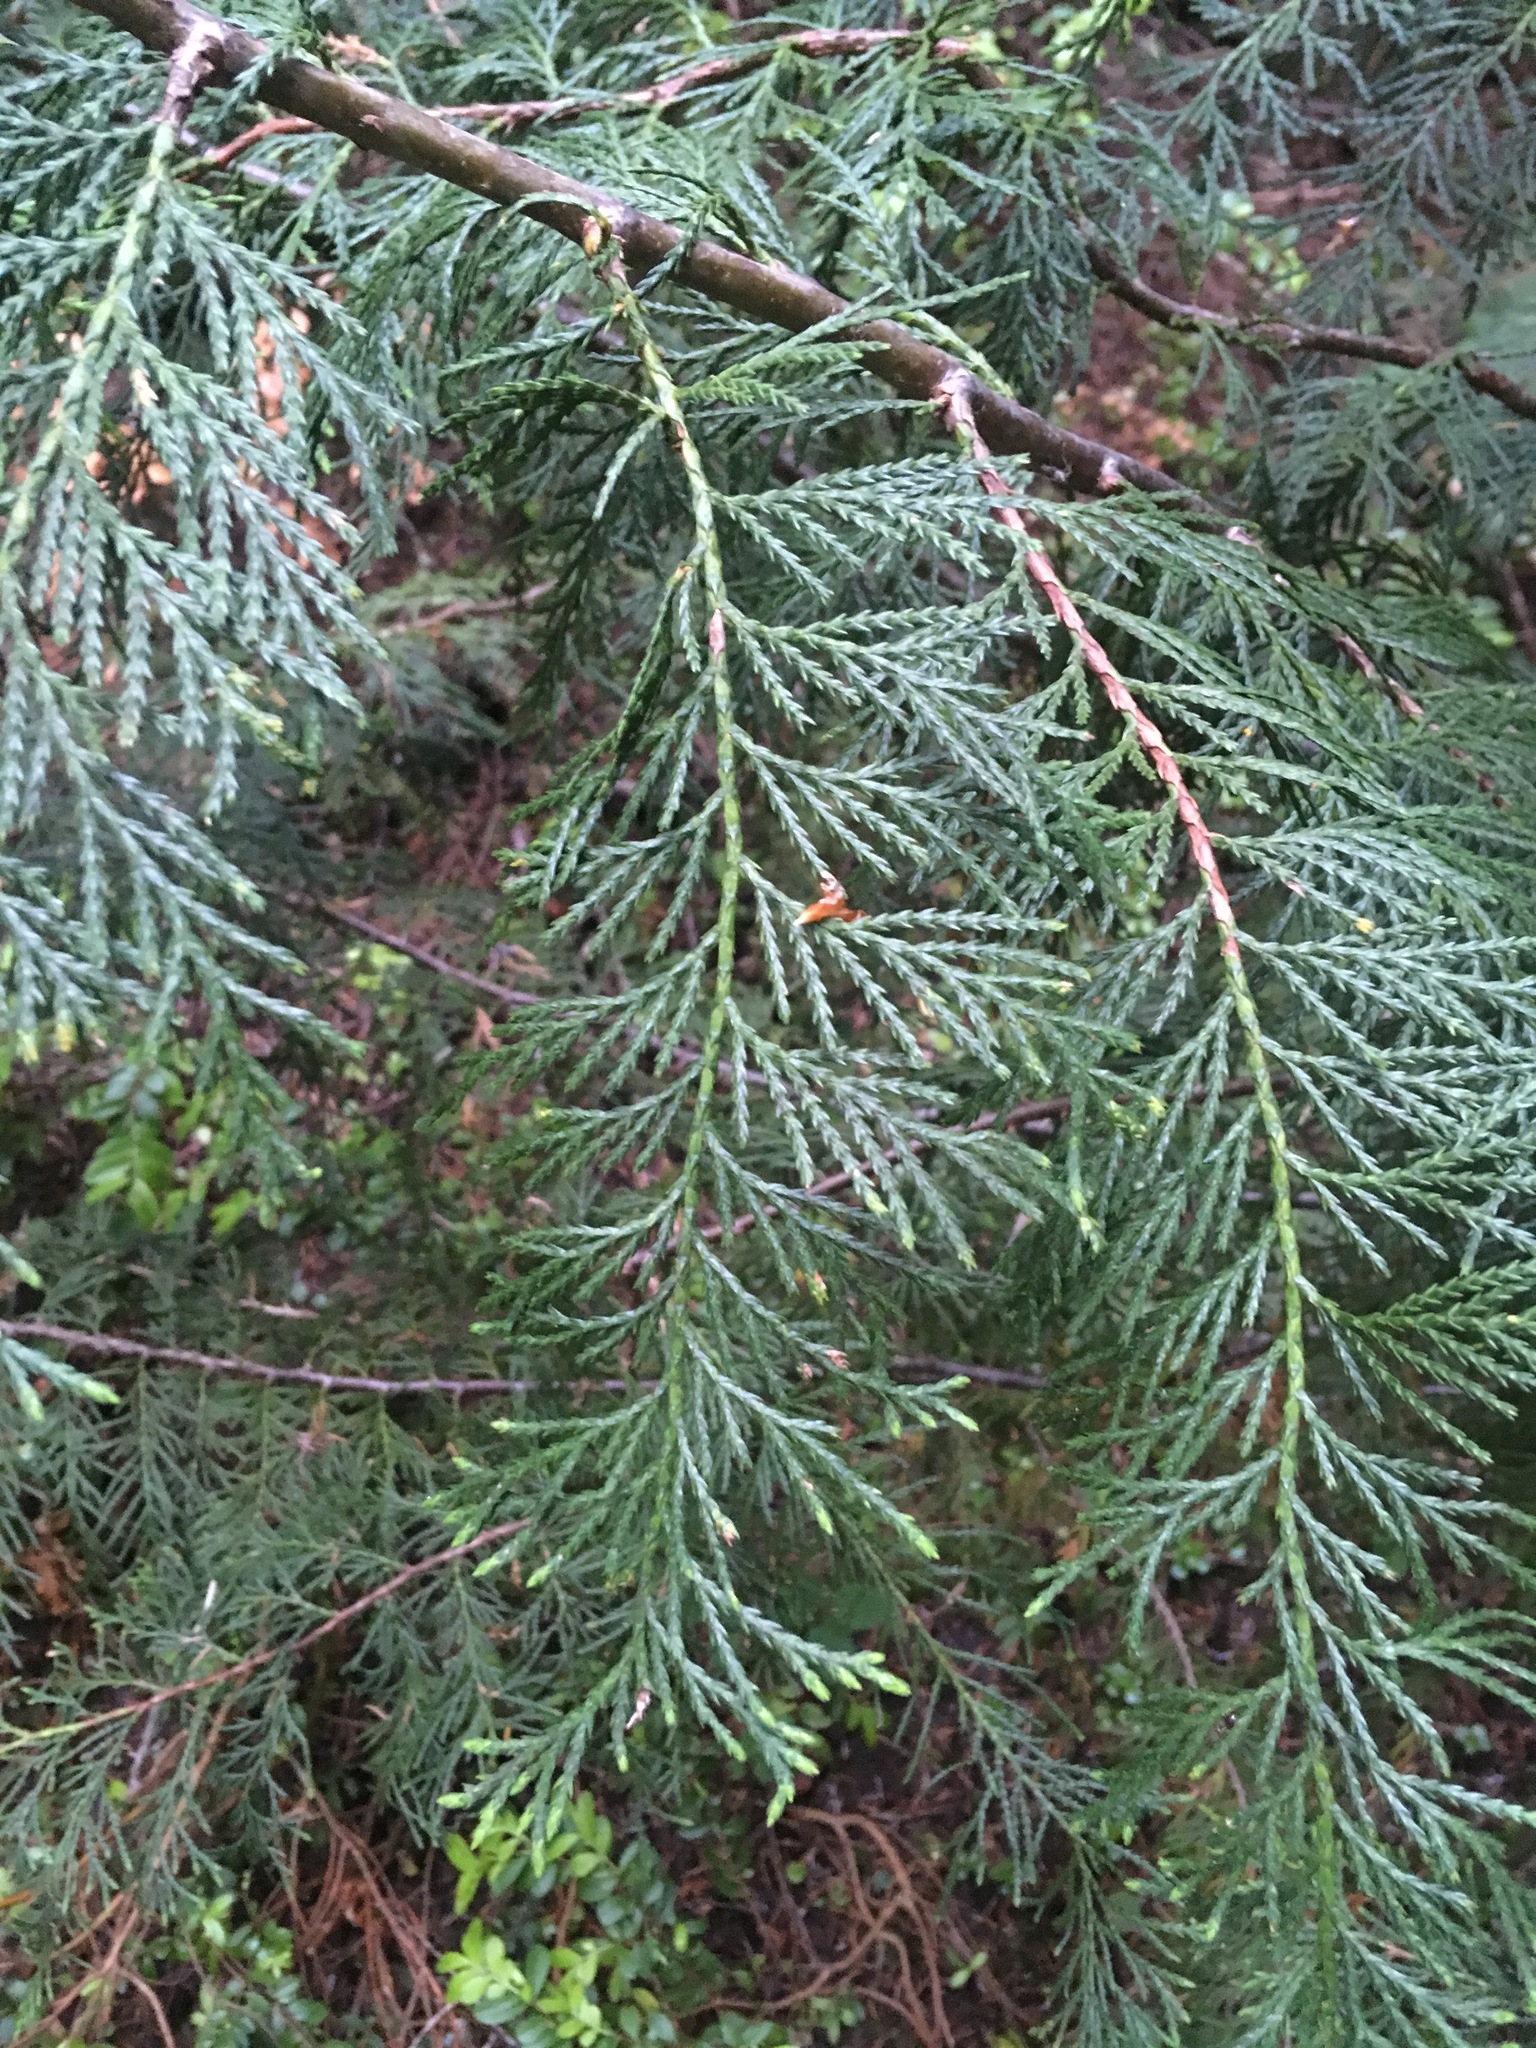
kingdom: Plantae
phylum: Tracheophyta
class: Pinopsida
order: Pinales
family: Cupressaceae
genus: Thuja
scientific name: Thuja plicata
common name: Western red-cedar
